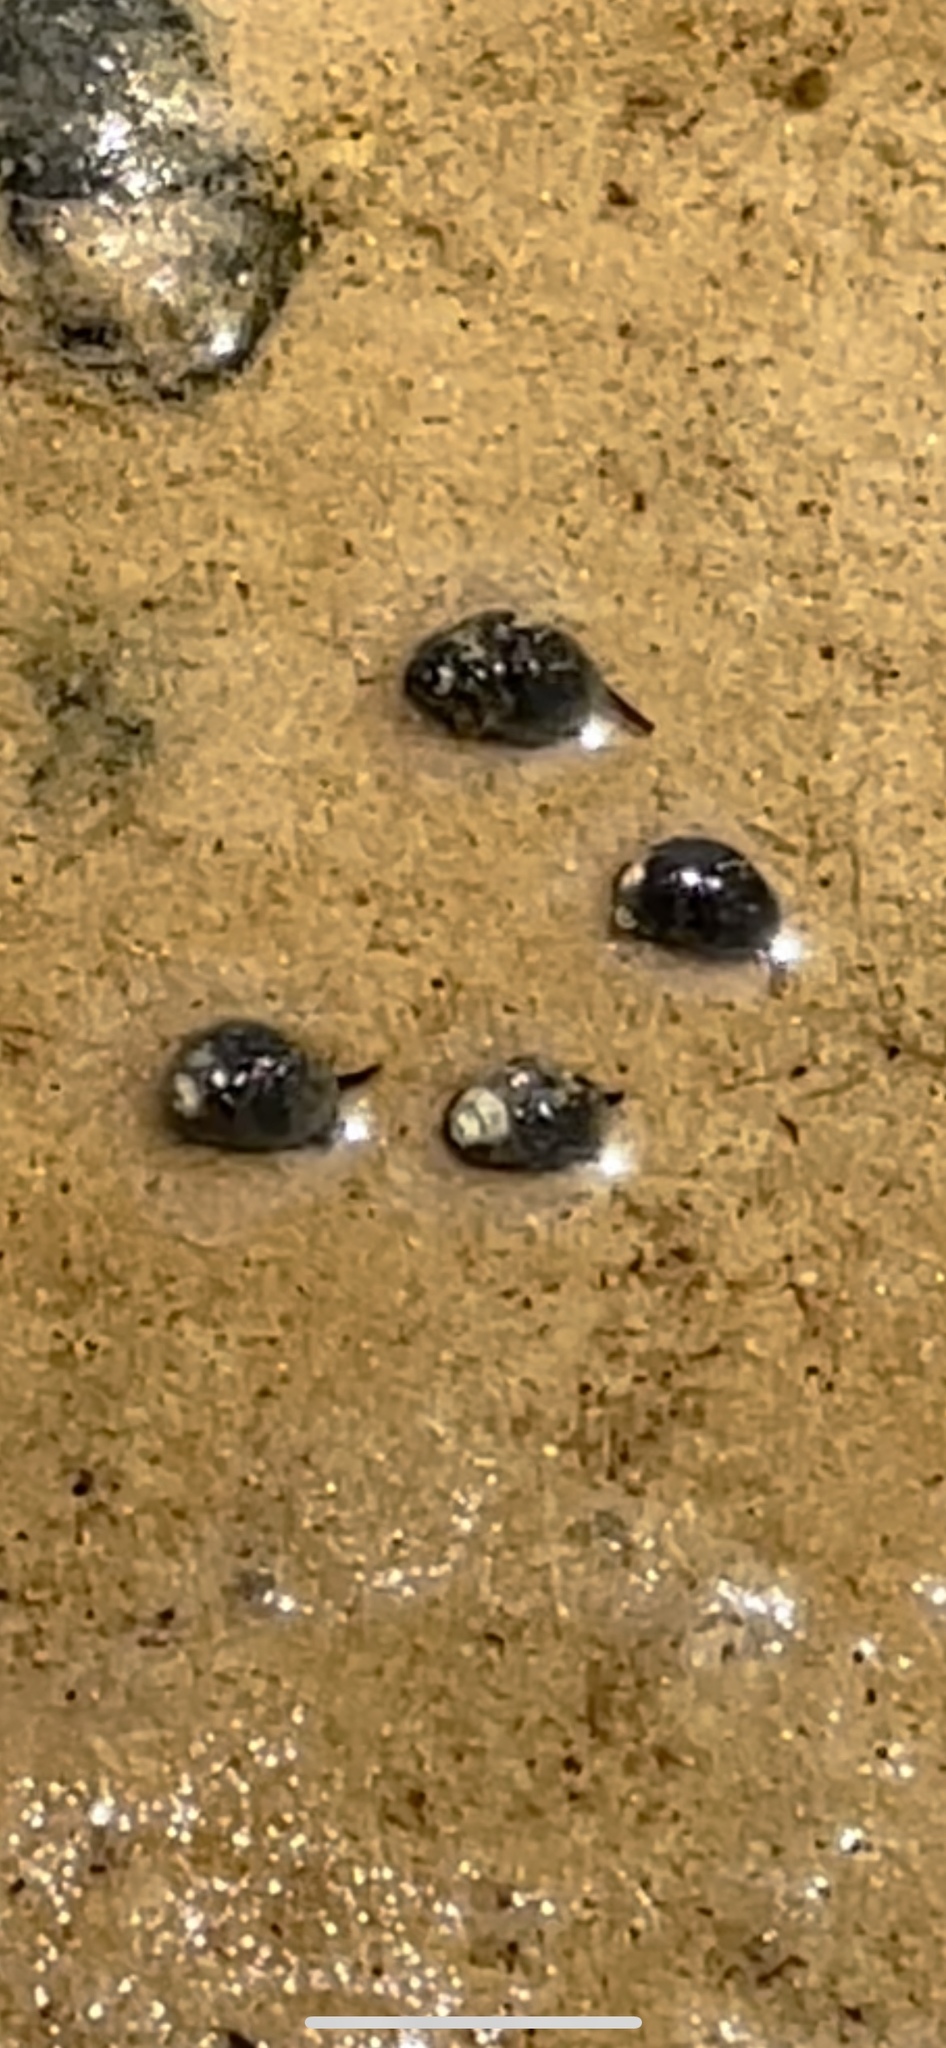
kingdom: Animalia
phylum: Mollusca
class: Gastropoda
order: Neogastropoda
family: Nassariidae
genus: Ilyanassa
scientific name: Ilyanassa obsoleta
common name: Eastern mudsnail
